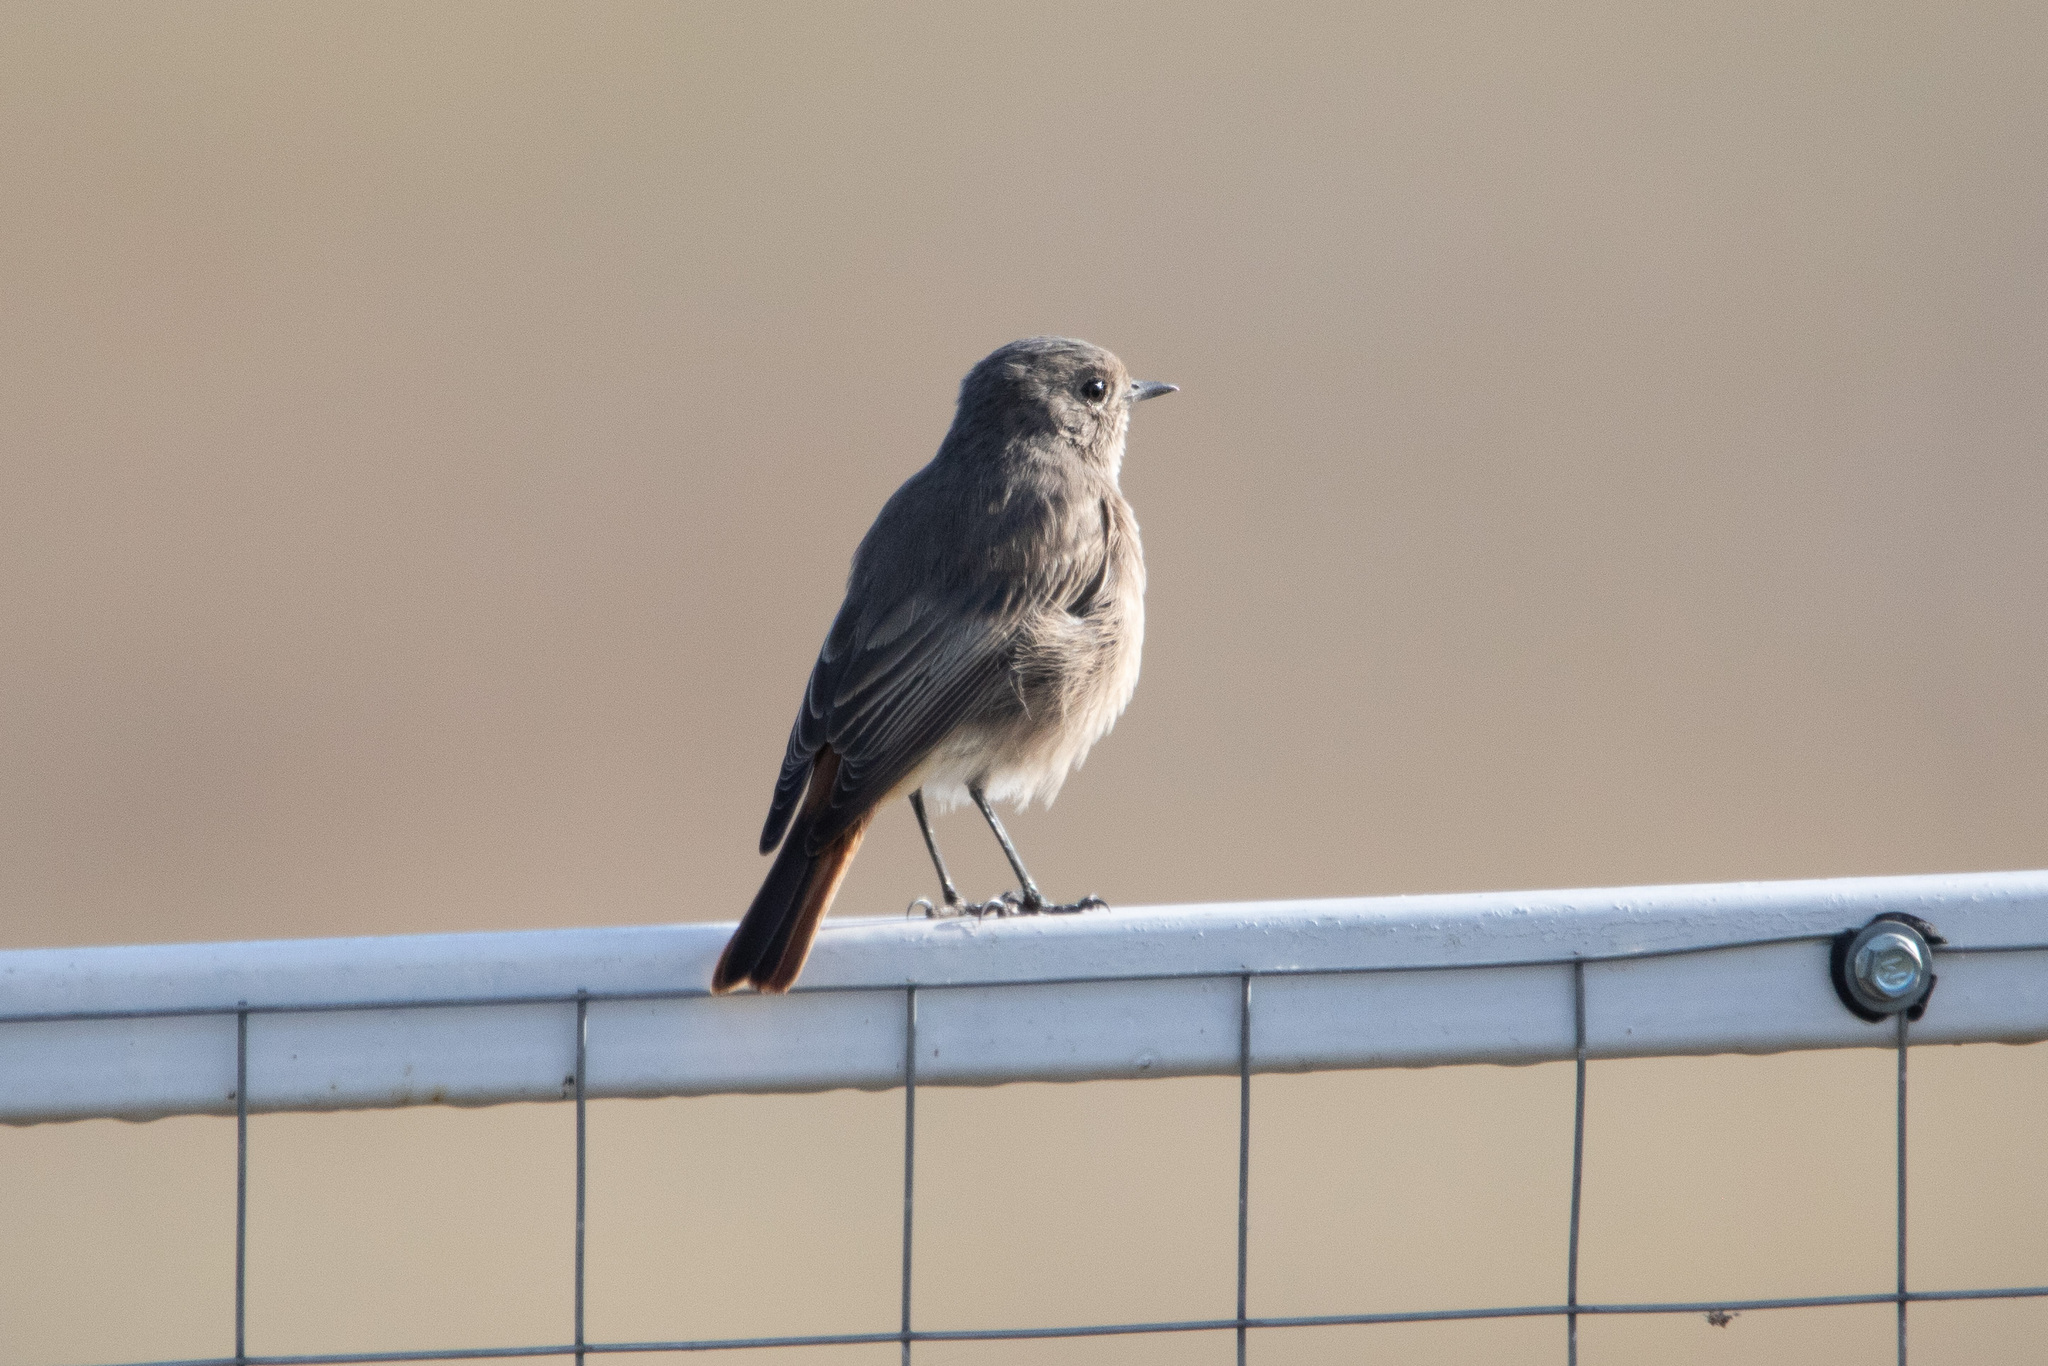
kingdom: Animalia
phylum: Chordata
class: Aves
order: Passeriformes
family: Muscicapidae
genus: Phoenicurus
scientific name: Phoenicurus ochruros
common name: Black redstart
